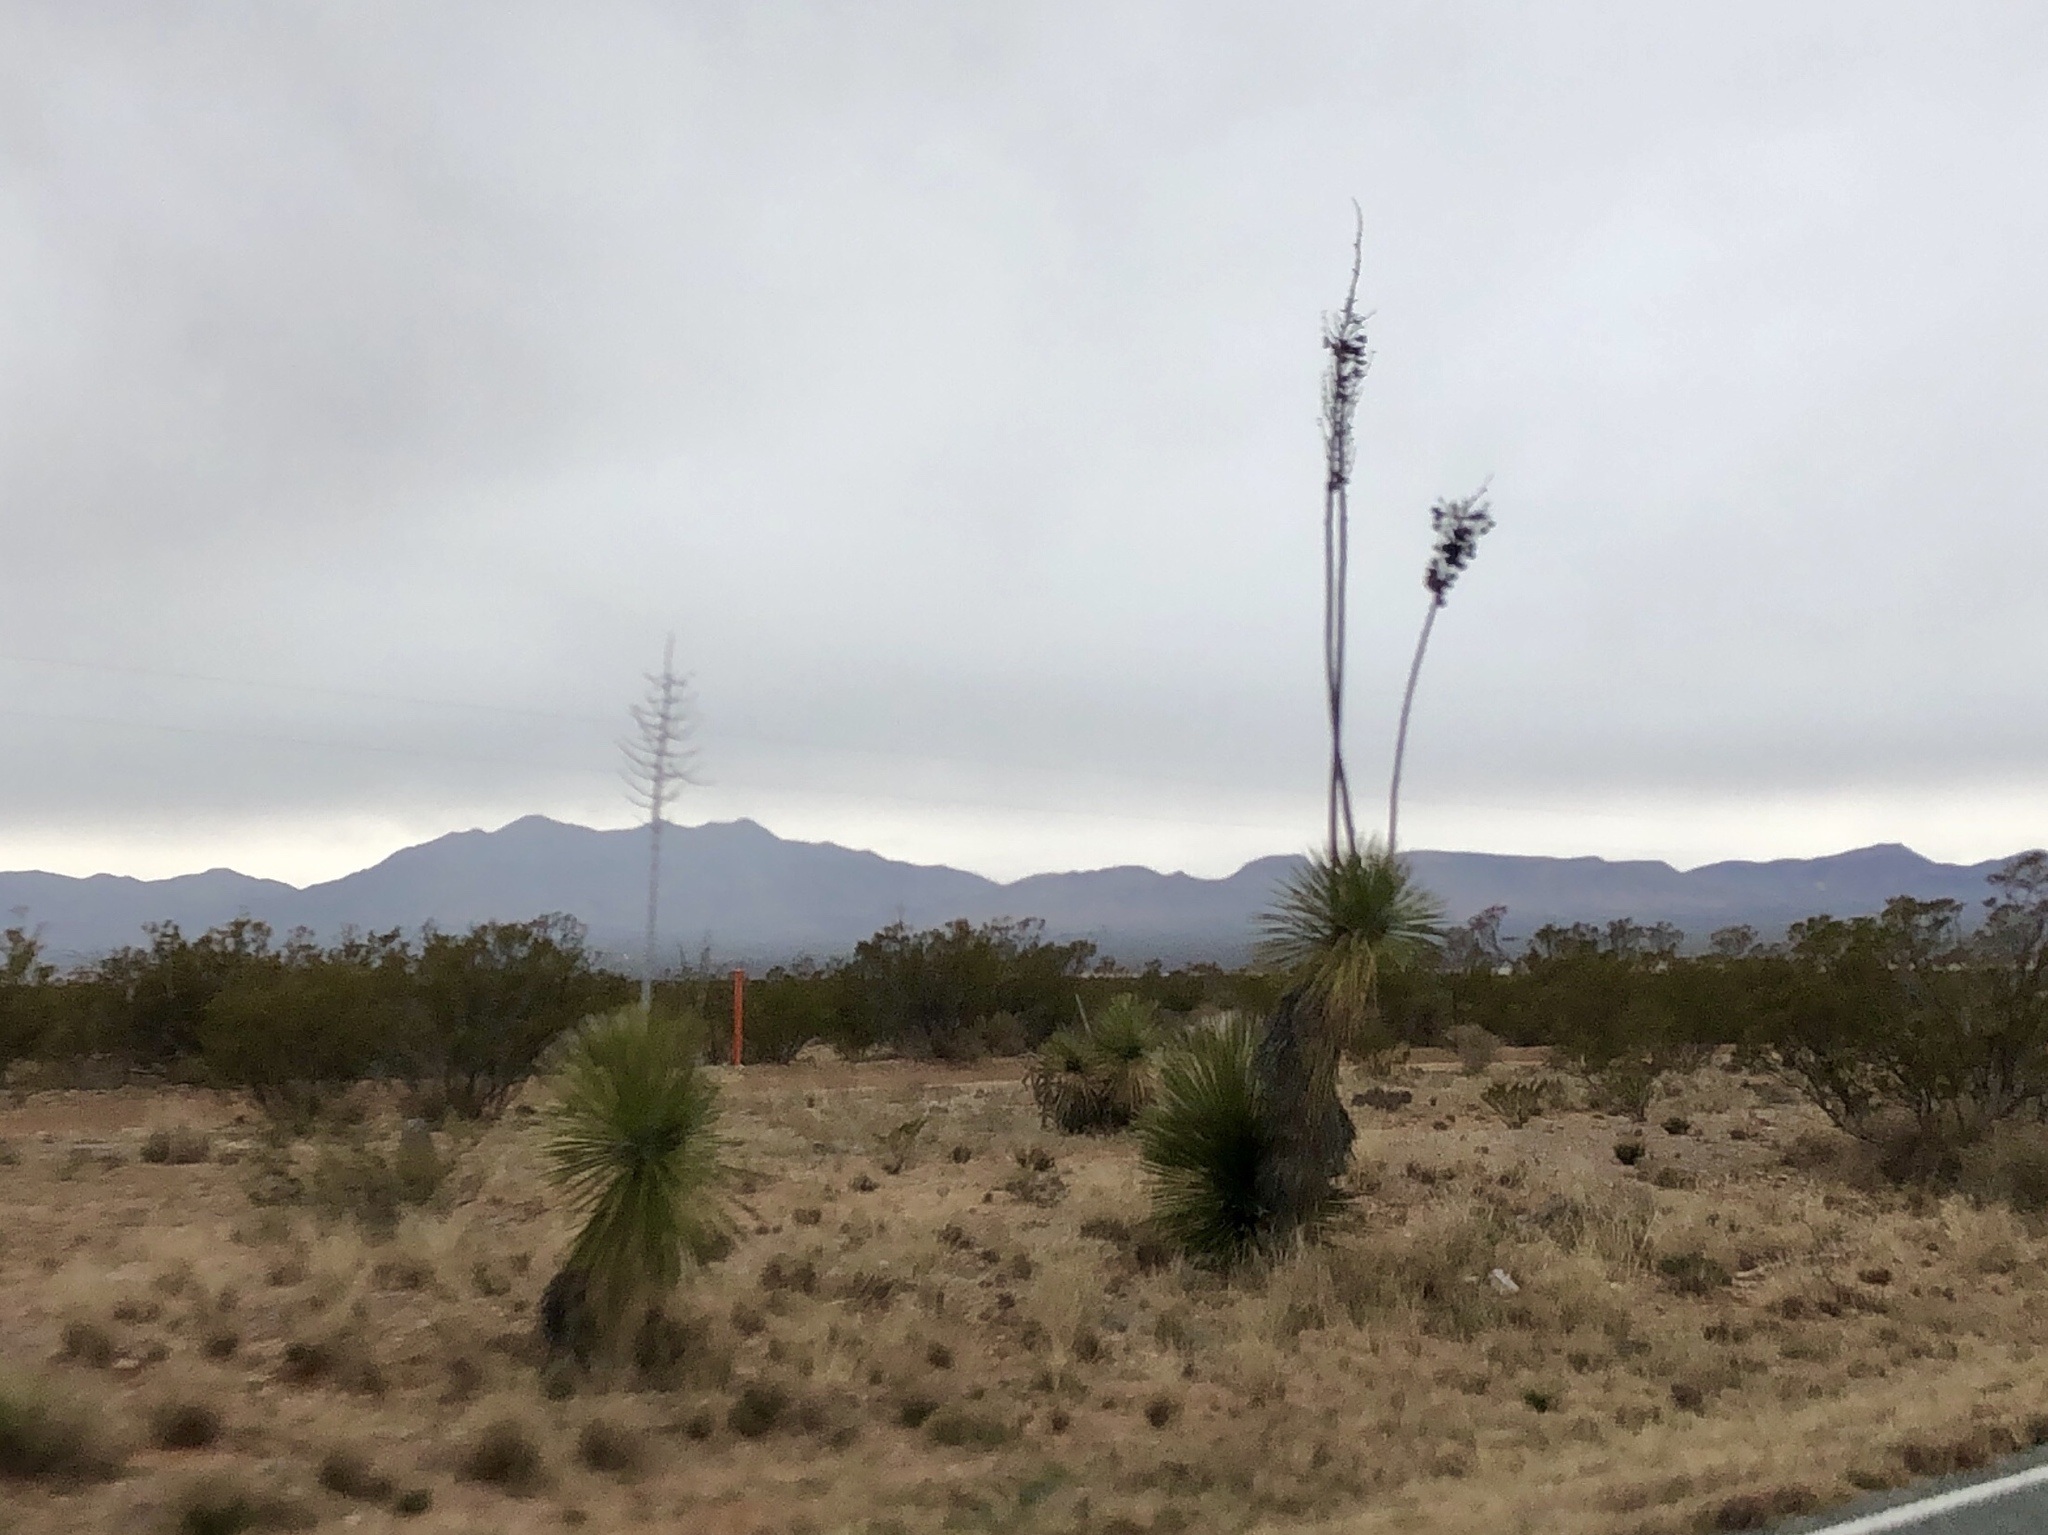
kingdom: Plantae
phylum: Tracheophyta
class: Liliopsida
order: Asparagales
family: Asparagaceae
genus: Yucca
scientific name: Yucca elata
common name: Palmella
